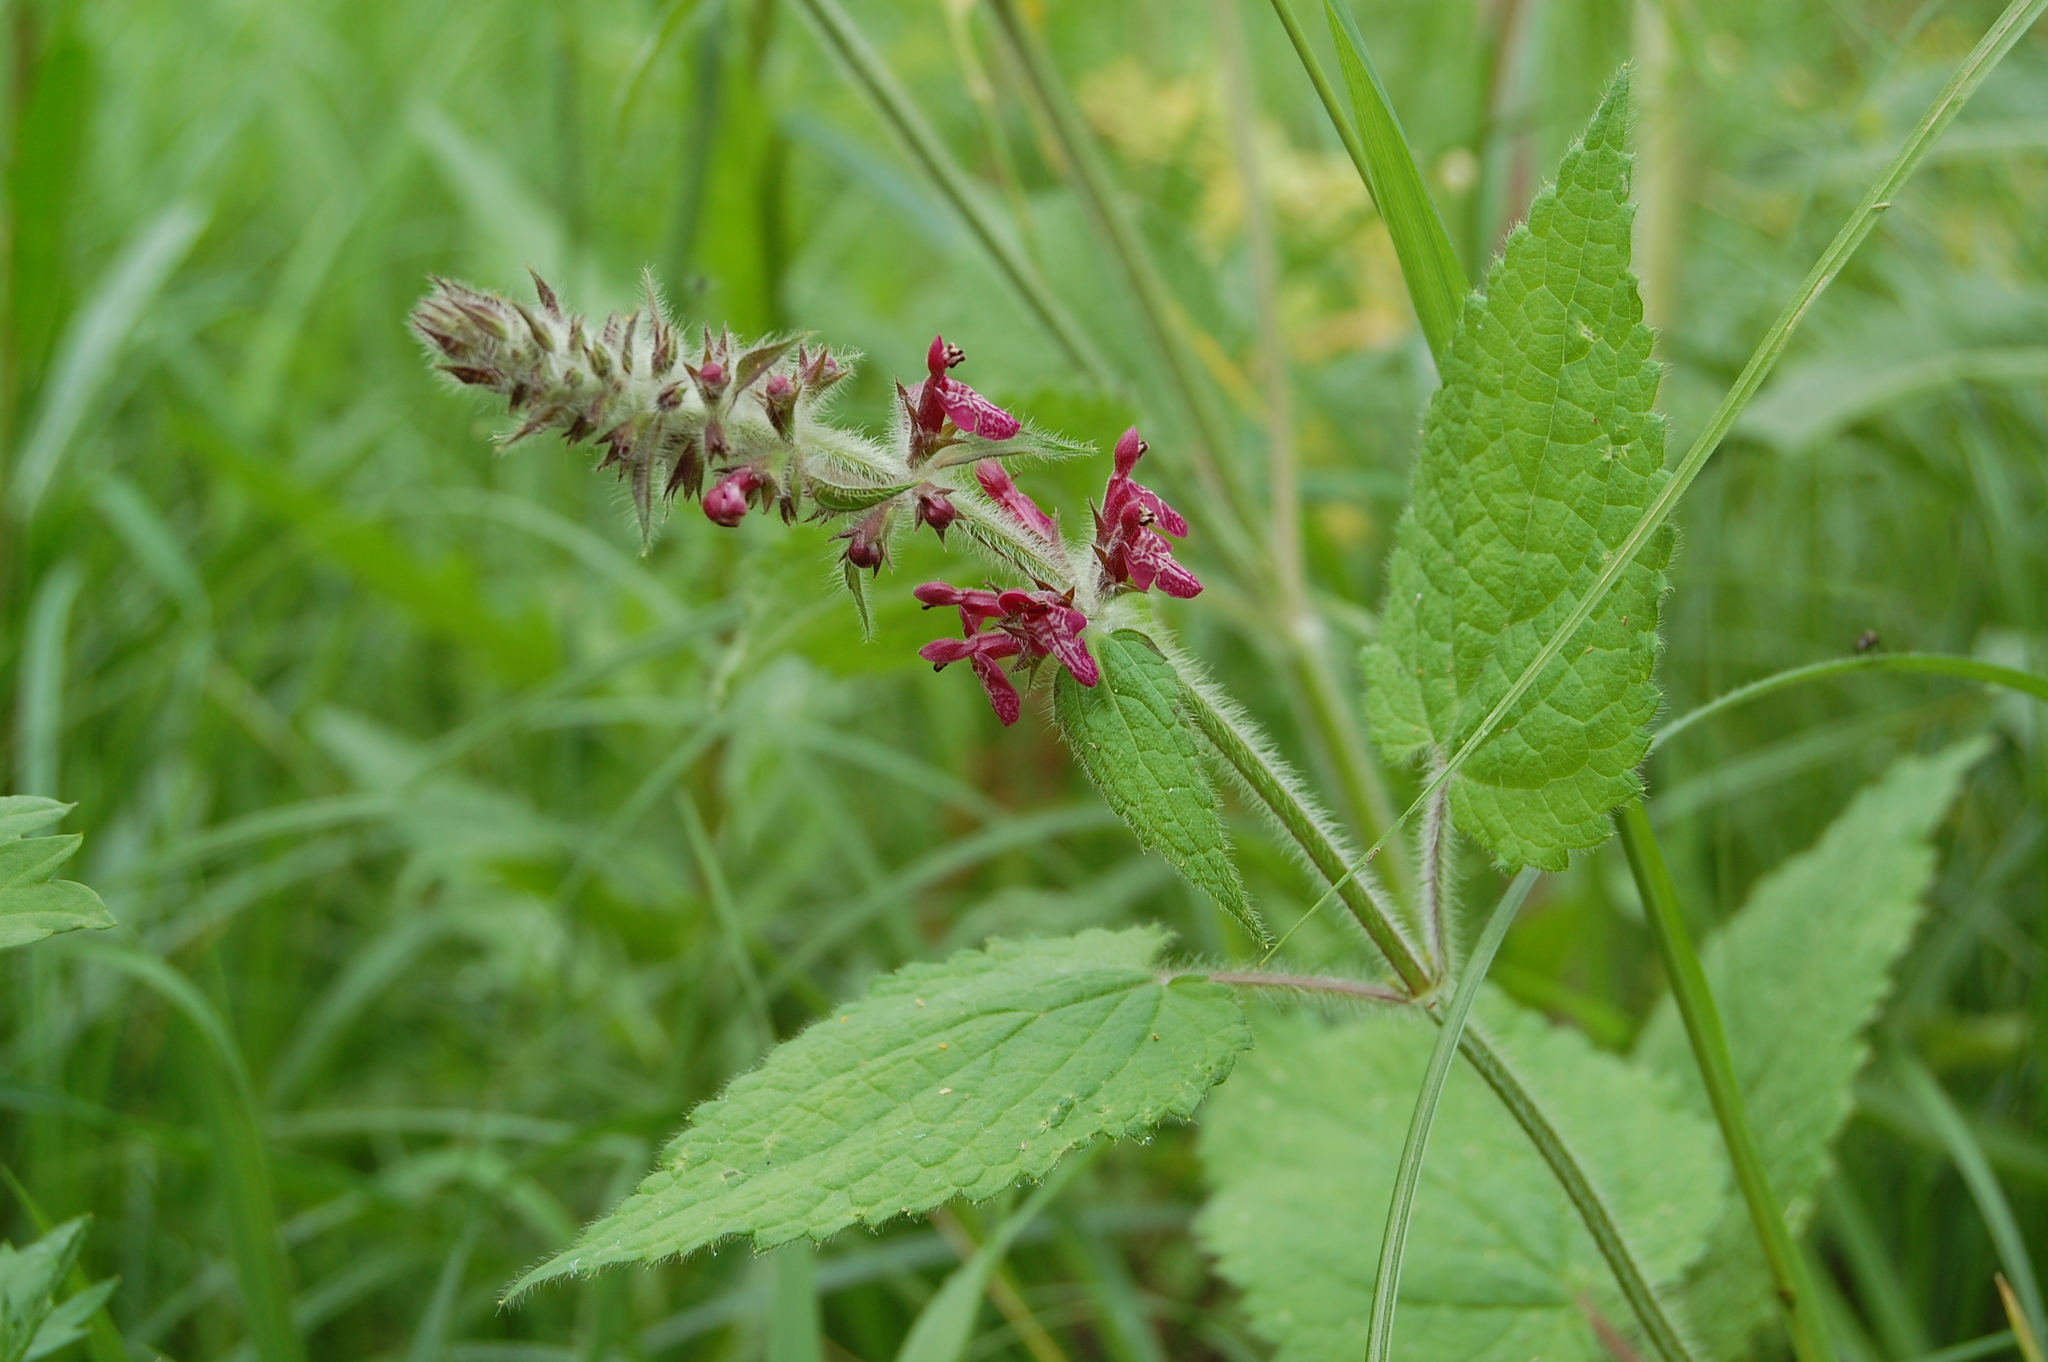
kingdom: Plantae
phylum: Tracheophyta
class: Magnoliopsida
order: Lamiales
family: Lamiaceae
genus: Stachys
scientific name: Stachys sylvatica
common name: Hedge woundwort
